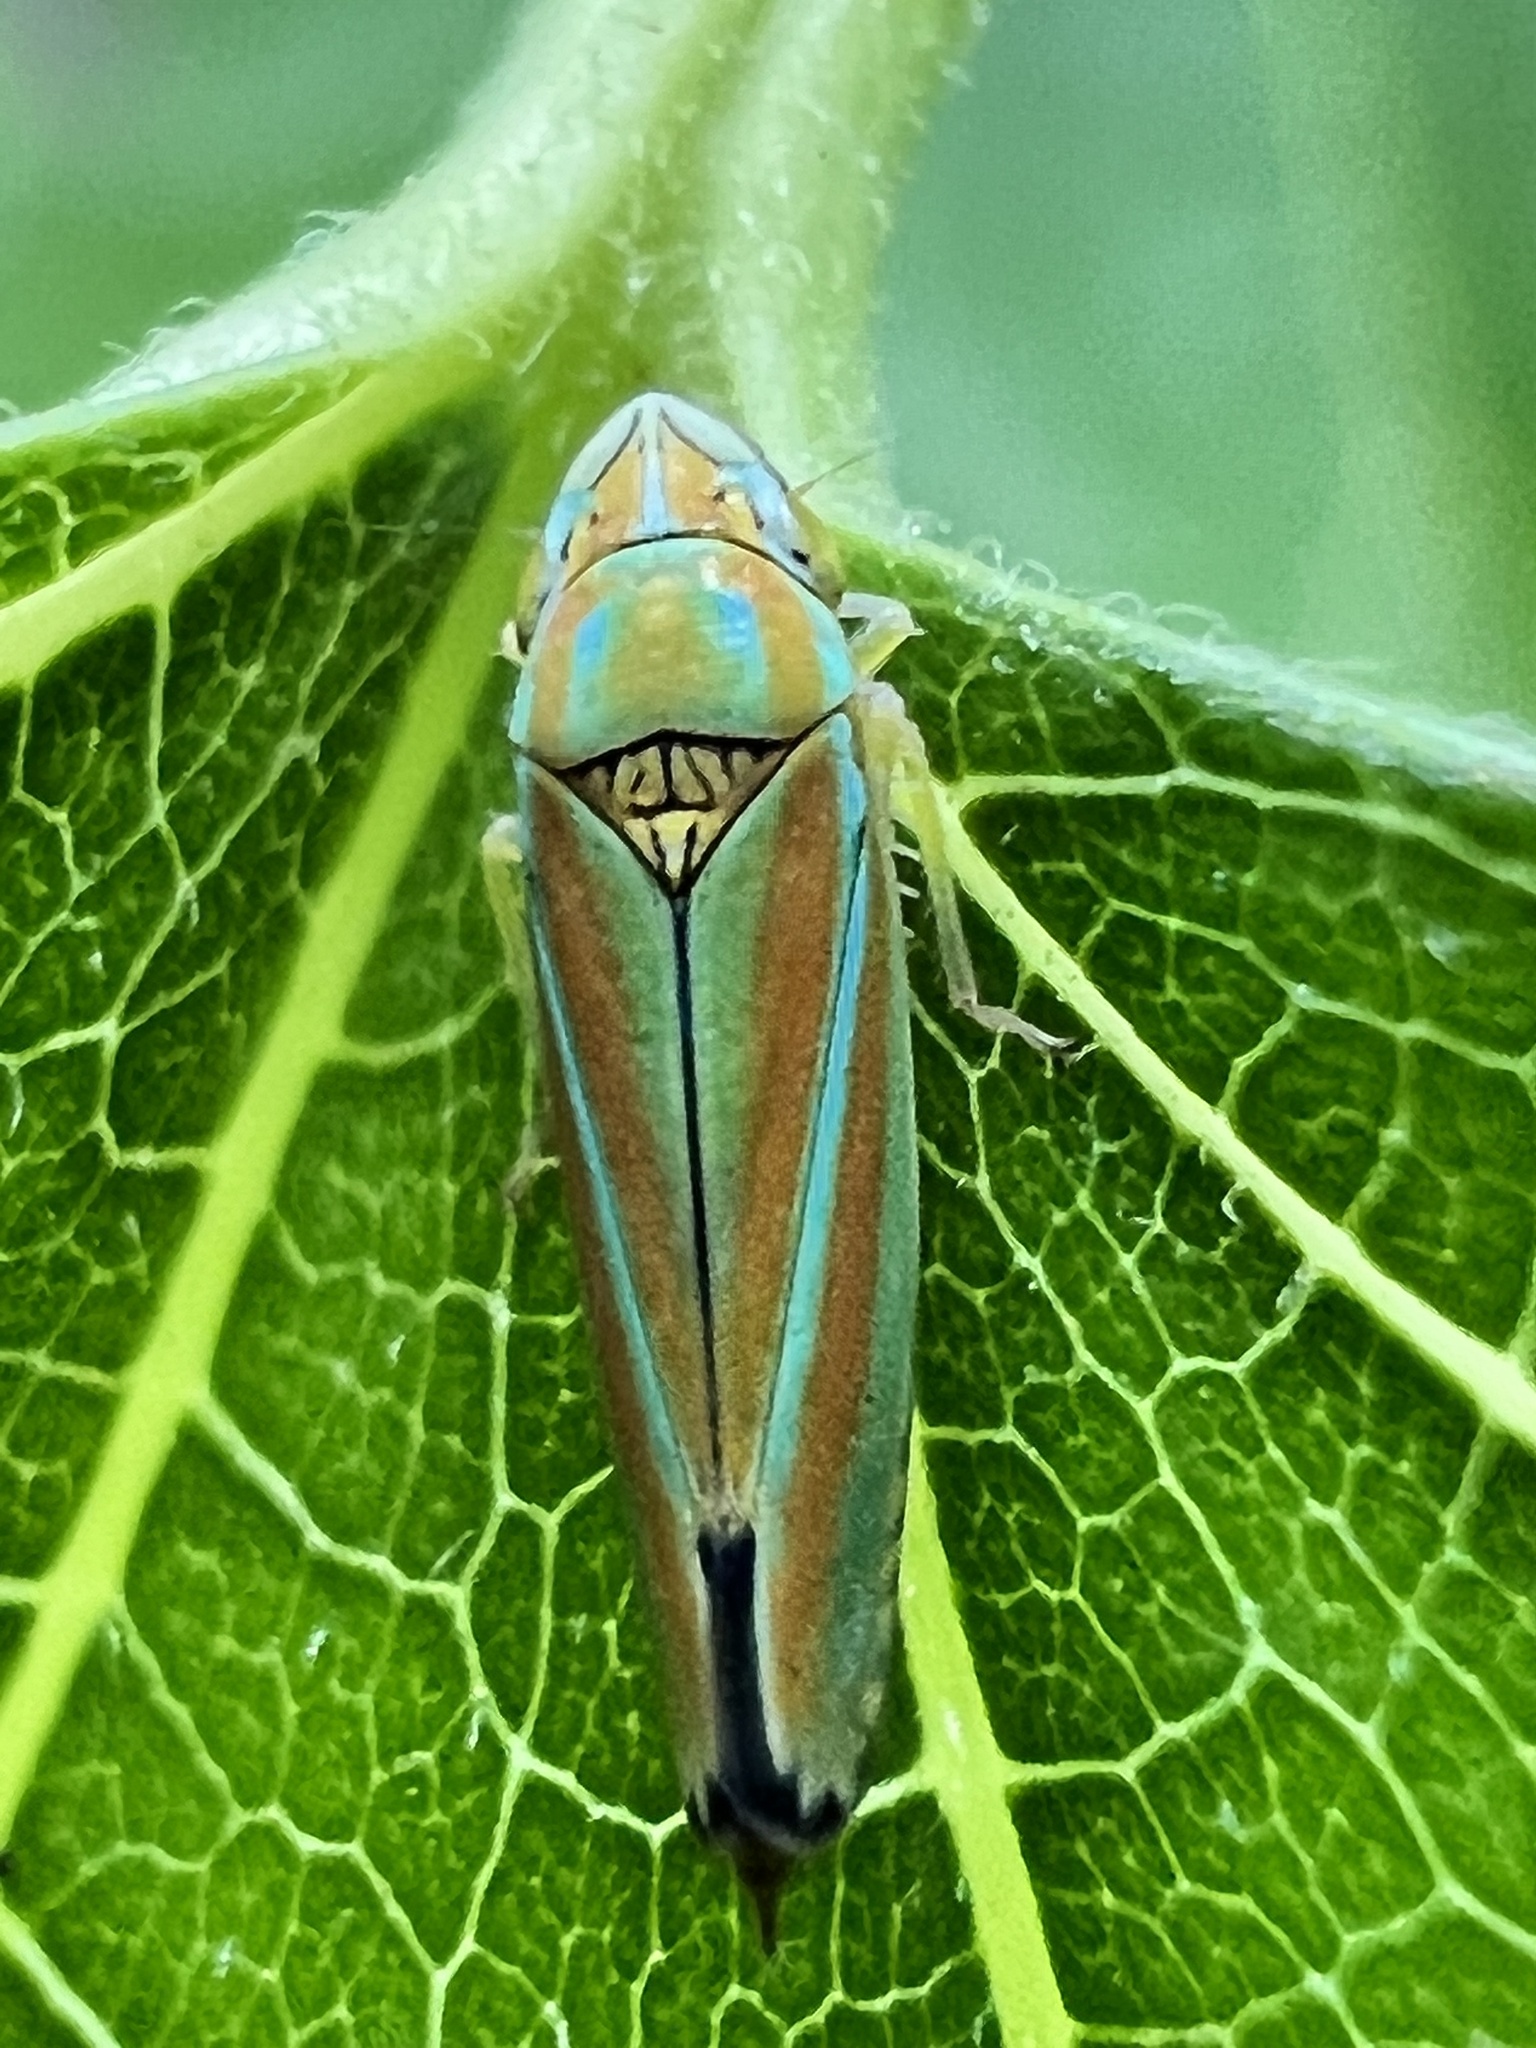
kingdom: Animalia
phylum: Arthropoda
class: Insecta
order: Hemiptera
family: Cicadellidae
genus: Graphocephala
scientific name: Graphocephala versuta
